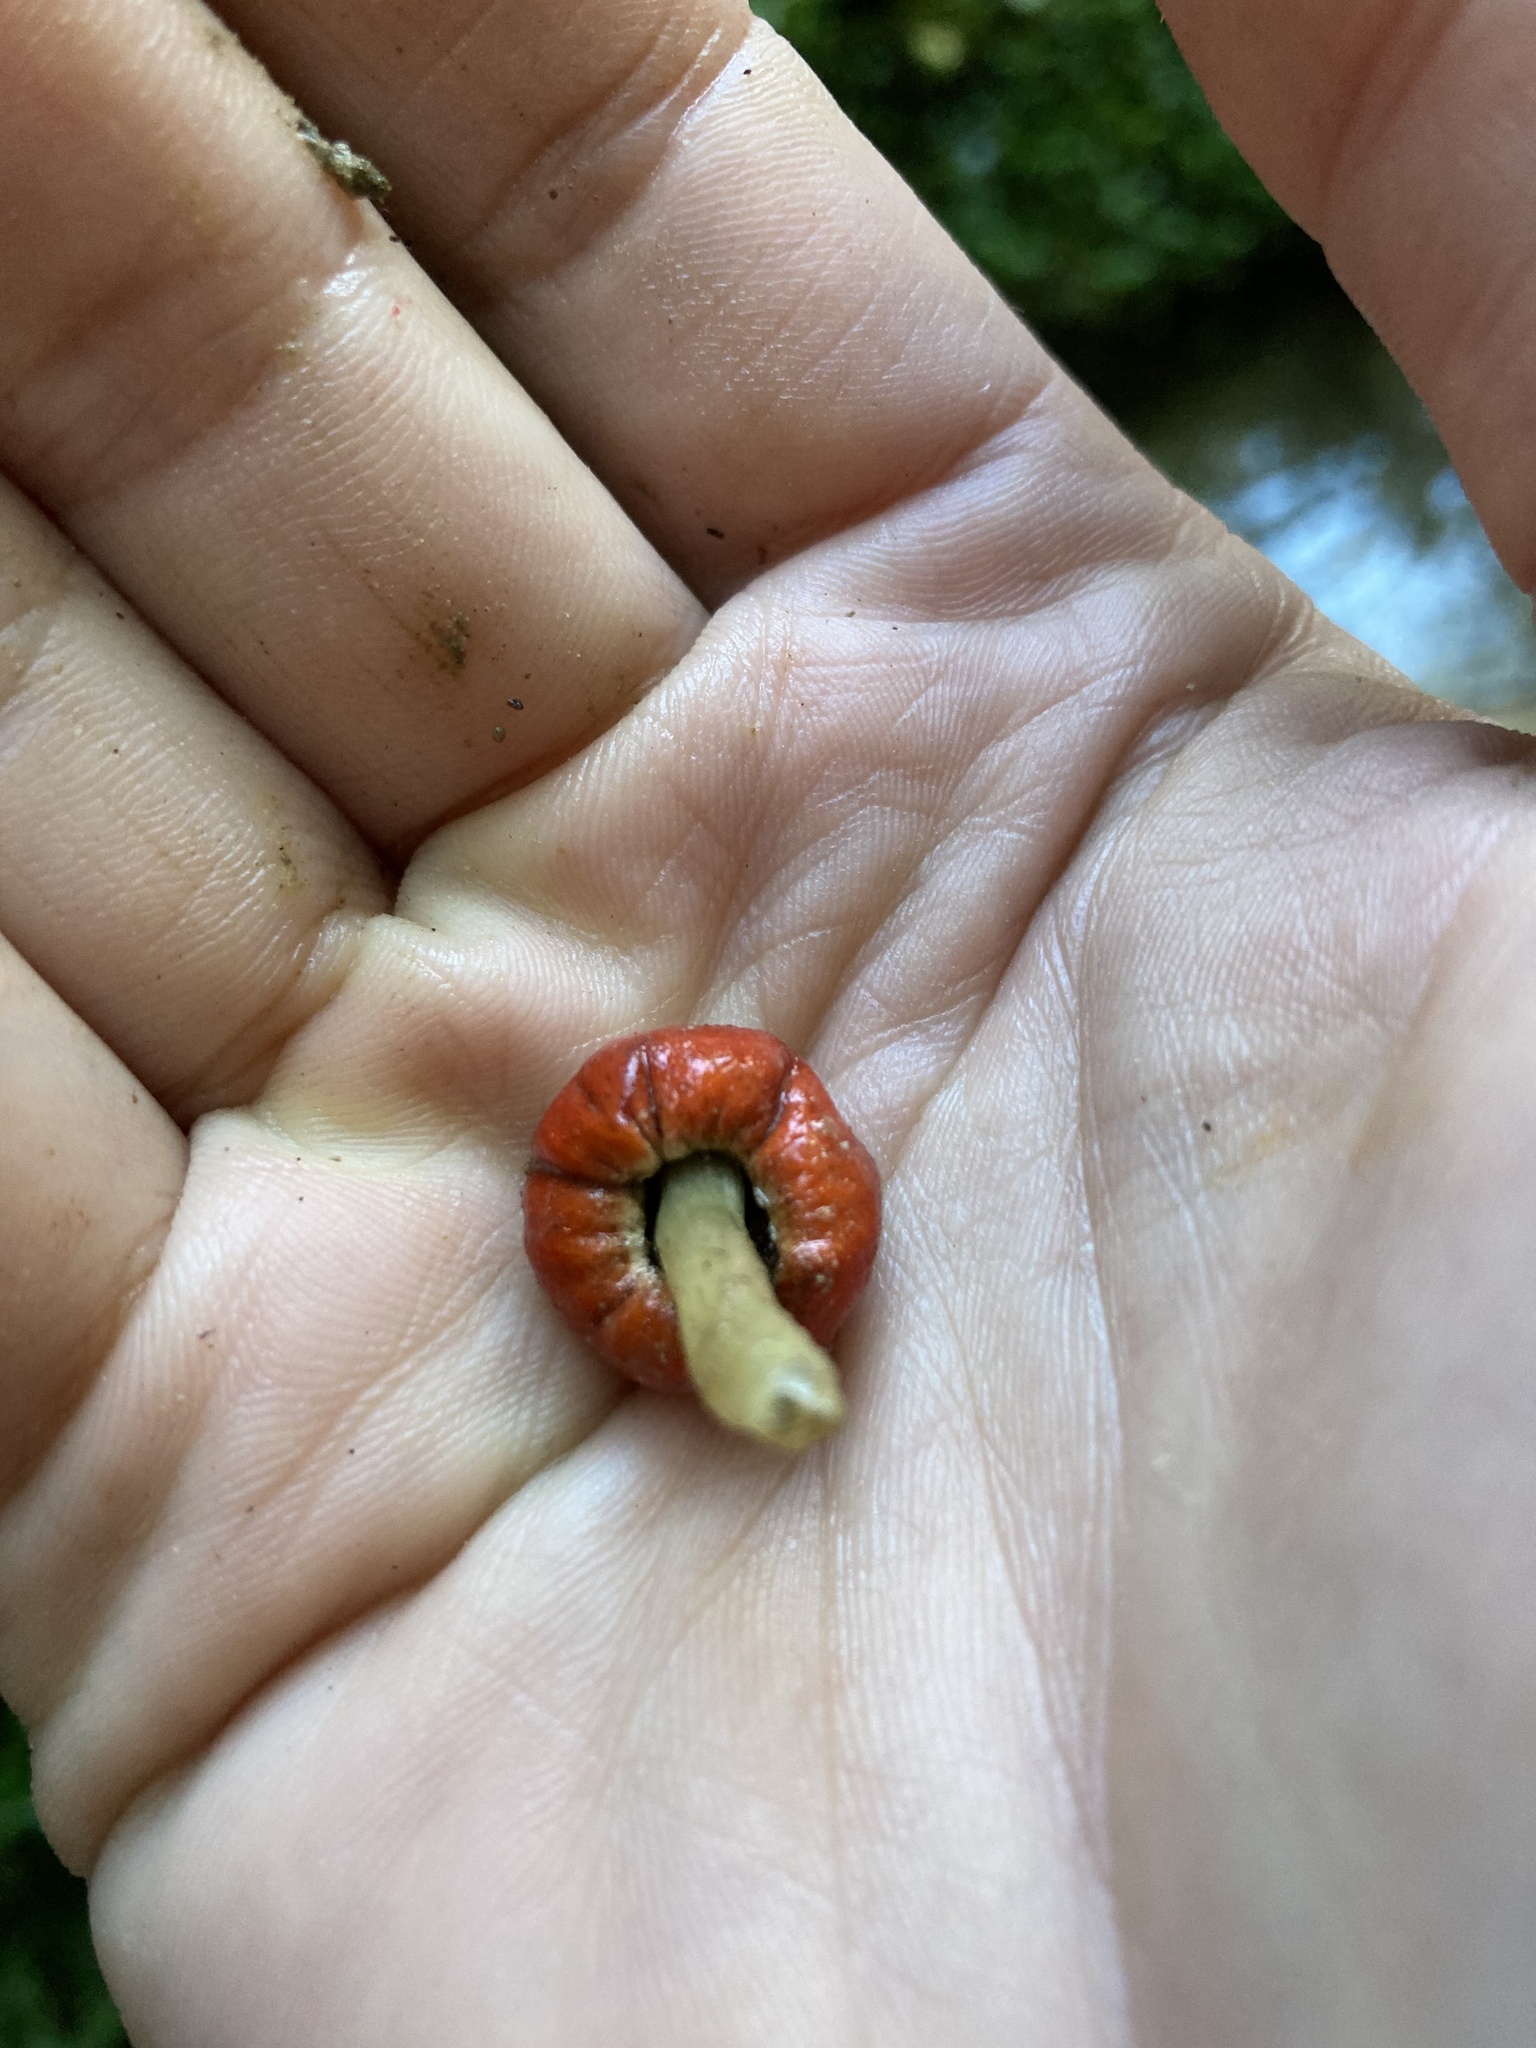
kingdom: Fungi
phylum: Basidiomycota
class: Agaricomycetes
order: Agaricales
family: Strophariaceae
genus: Leratiomyces
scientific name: Leratiomyces erythrocephalus
